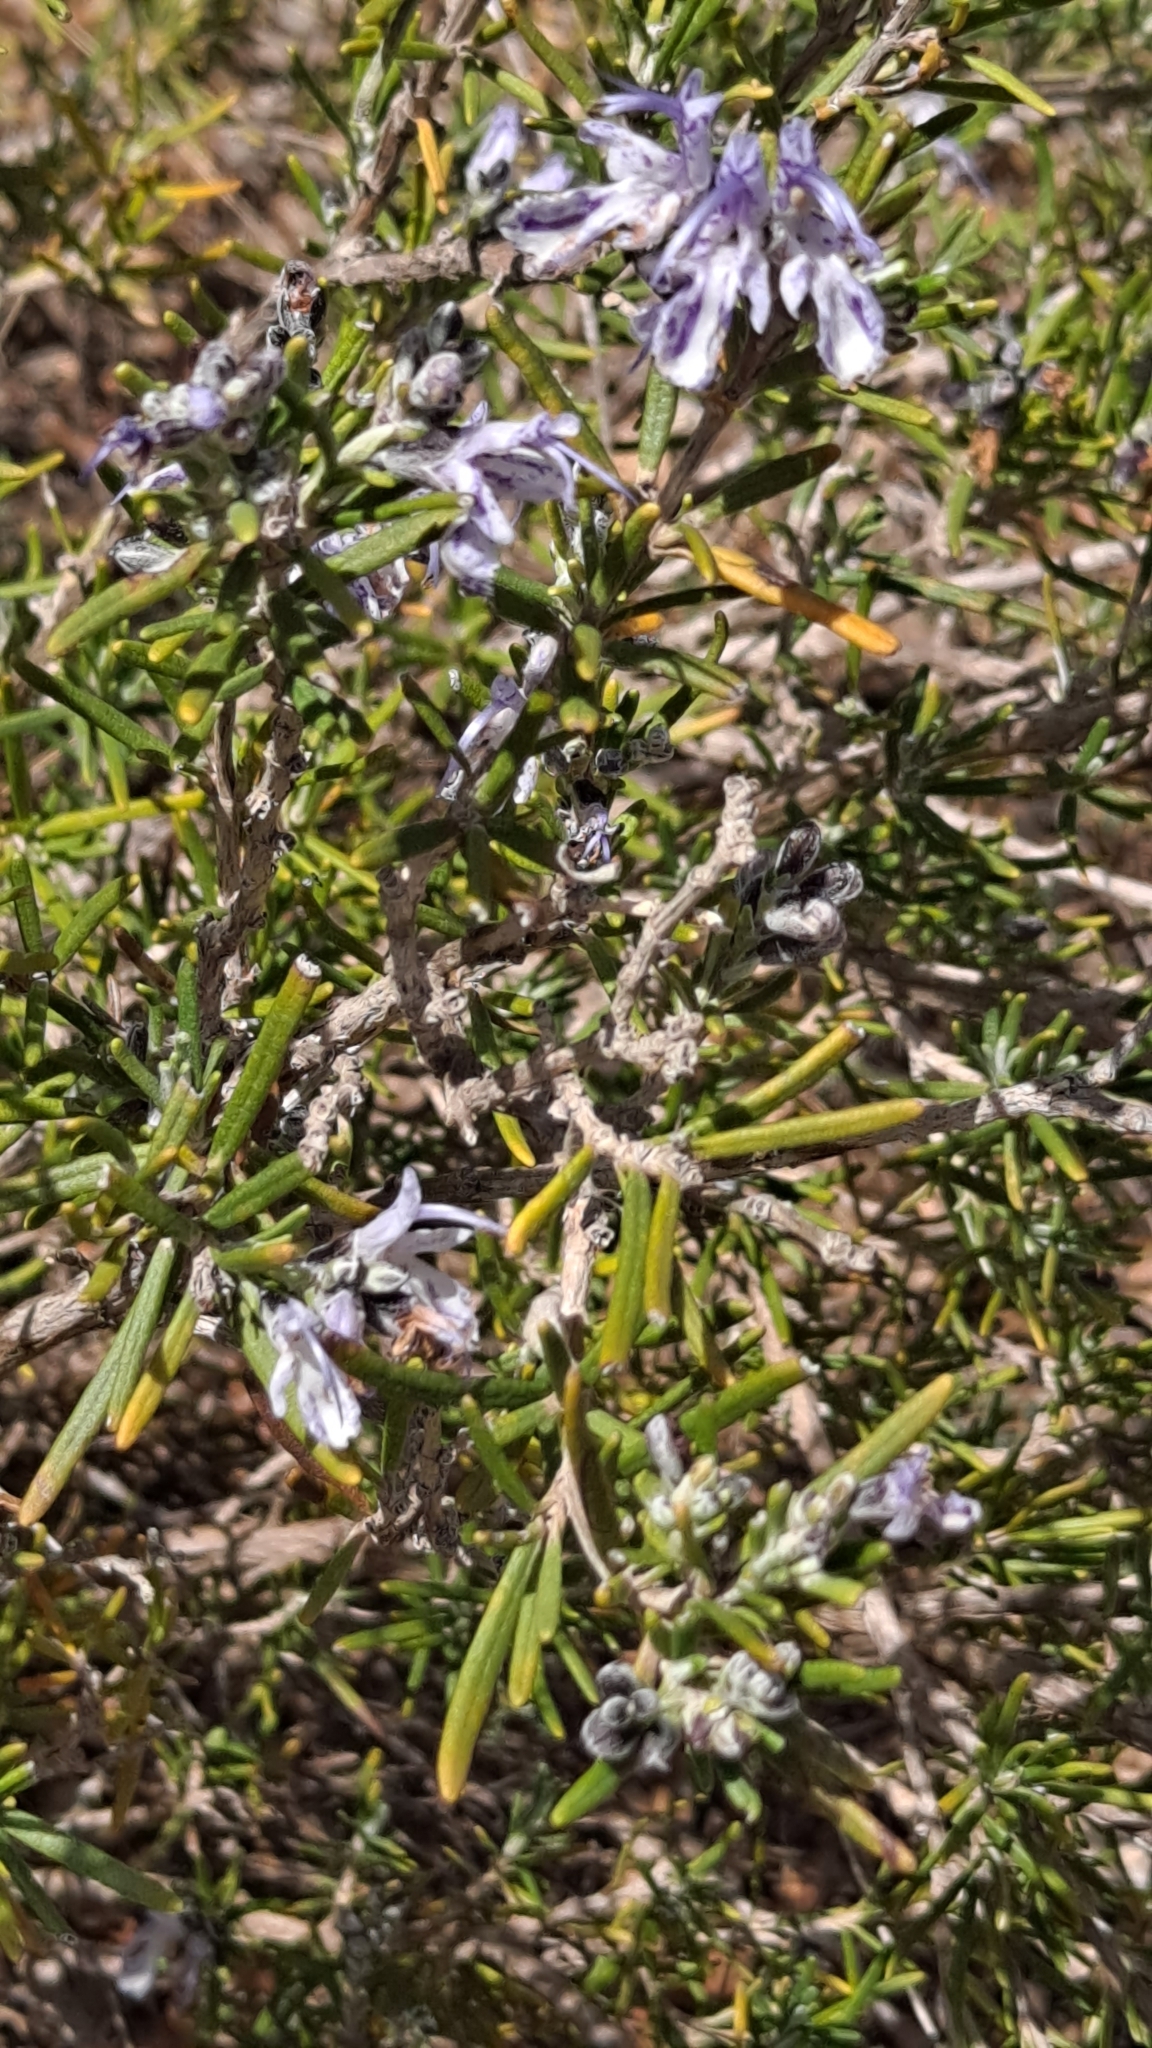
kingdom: Plantae
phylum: Tracheophyta
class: Magnoliopsida
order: Lamiales
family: Lamiaceae
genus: Salvia
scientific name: Salvia rosmarinus
